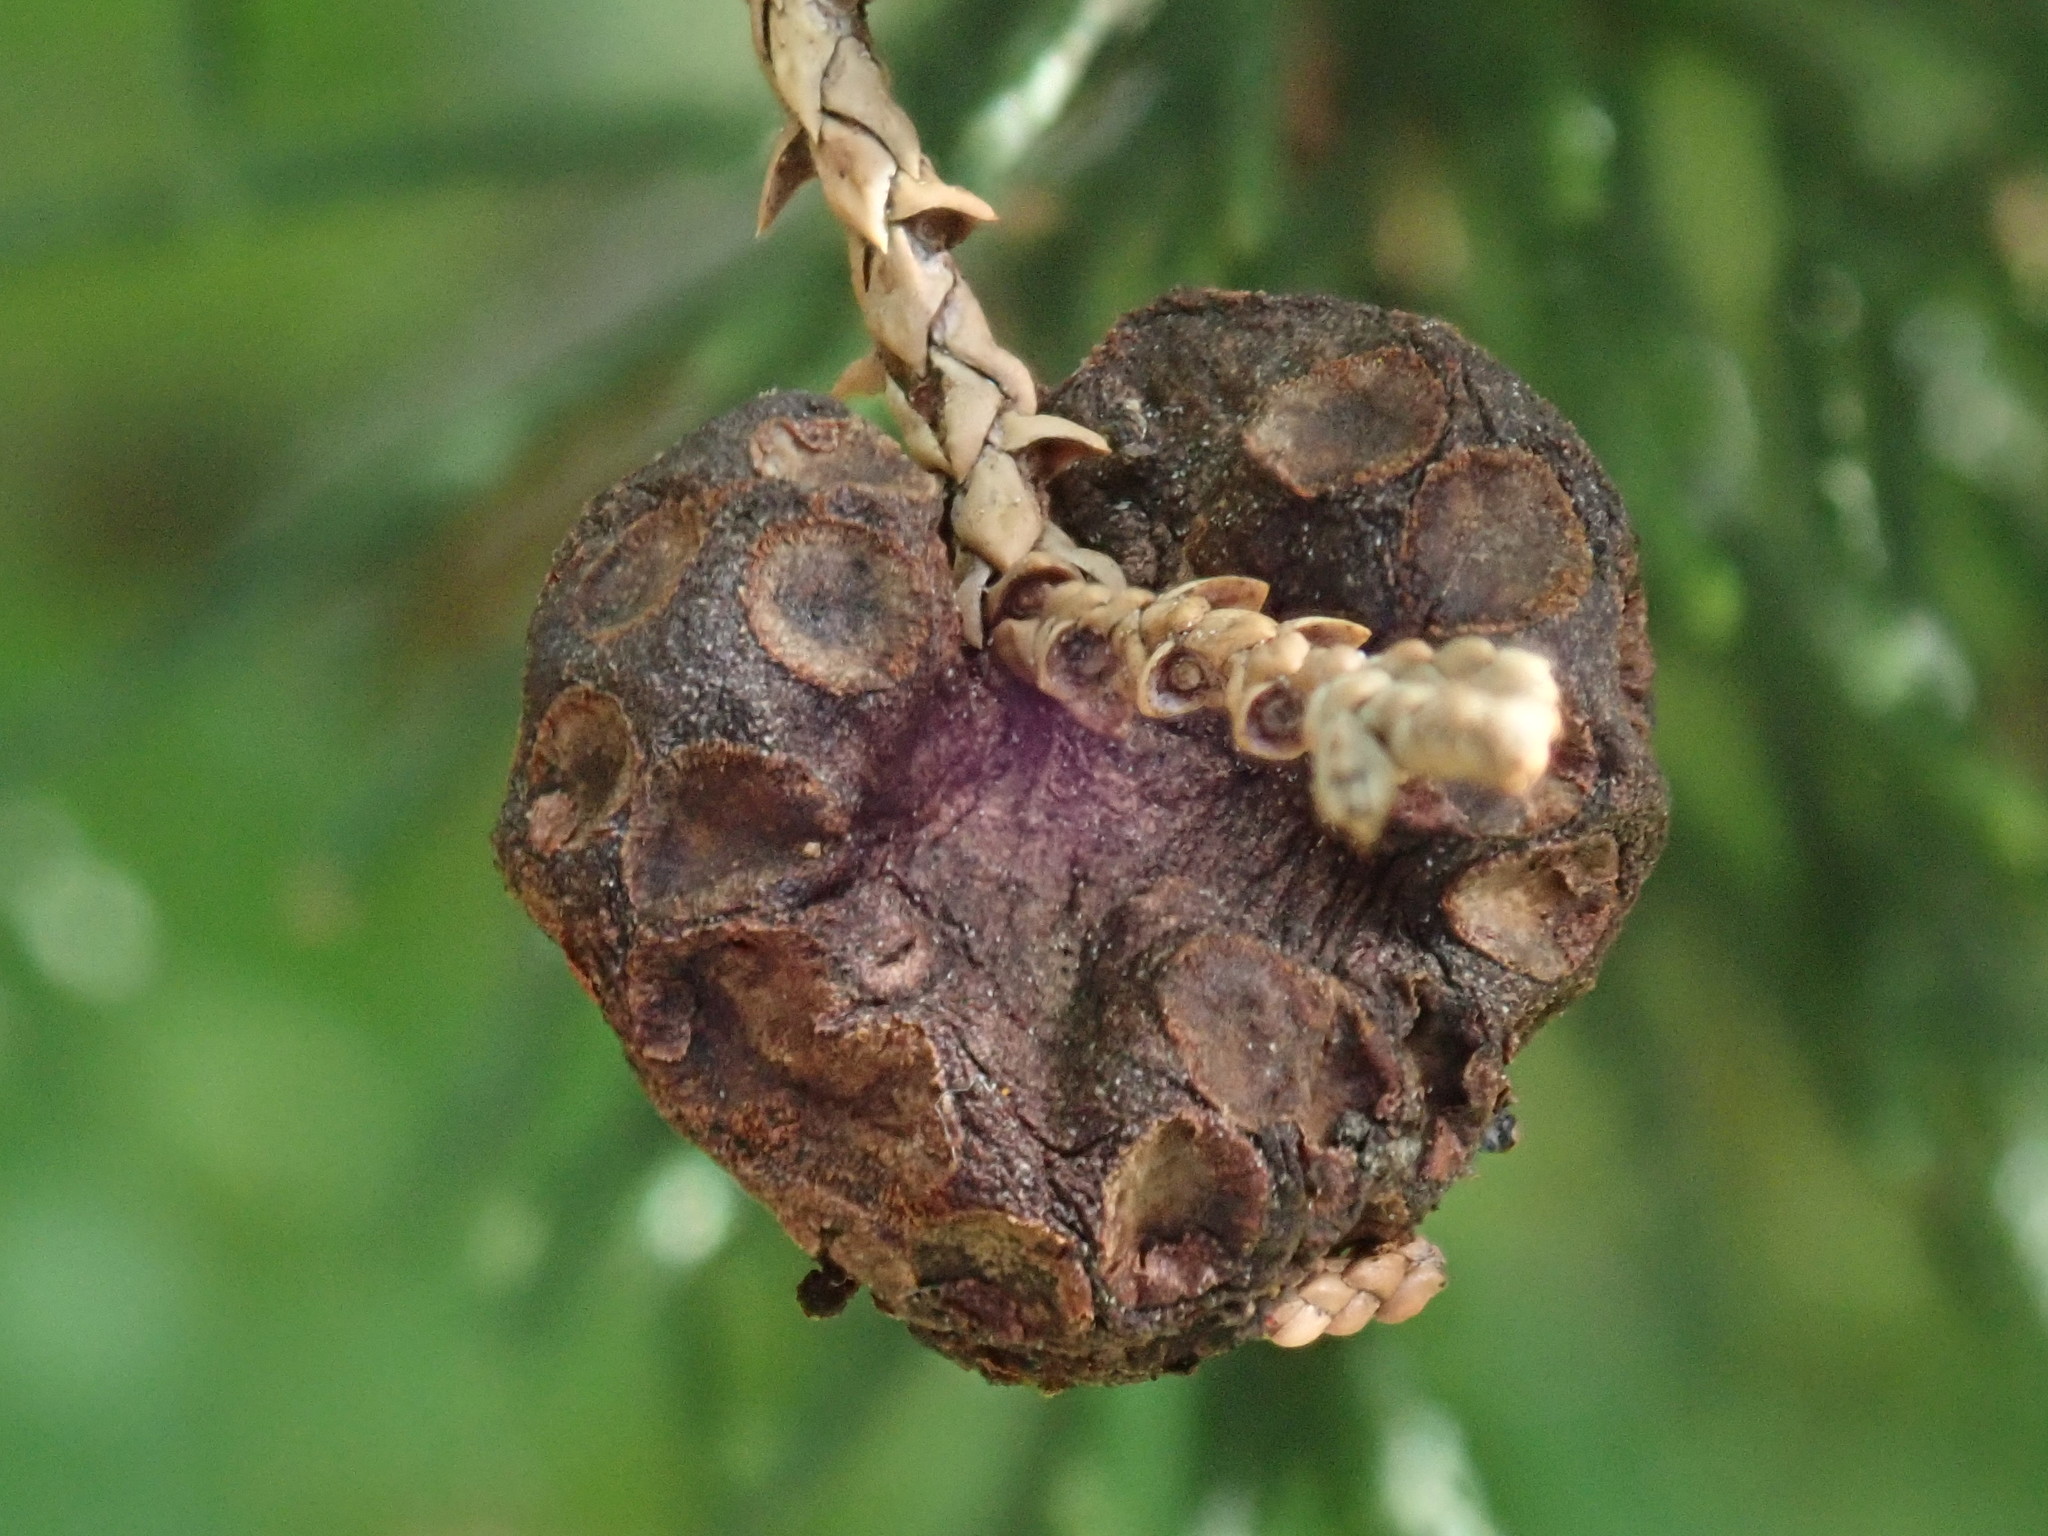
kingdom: Fungi
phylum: Basidiomycota
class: Pucciniomycetes
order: Pucciniales
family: Gymnosporangiaceae
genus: Gymnosporangium
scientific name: Gymnosporangium juniperi-virginianae
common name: Juniper-apple rust
